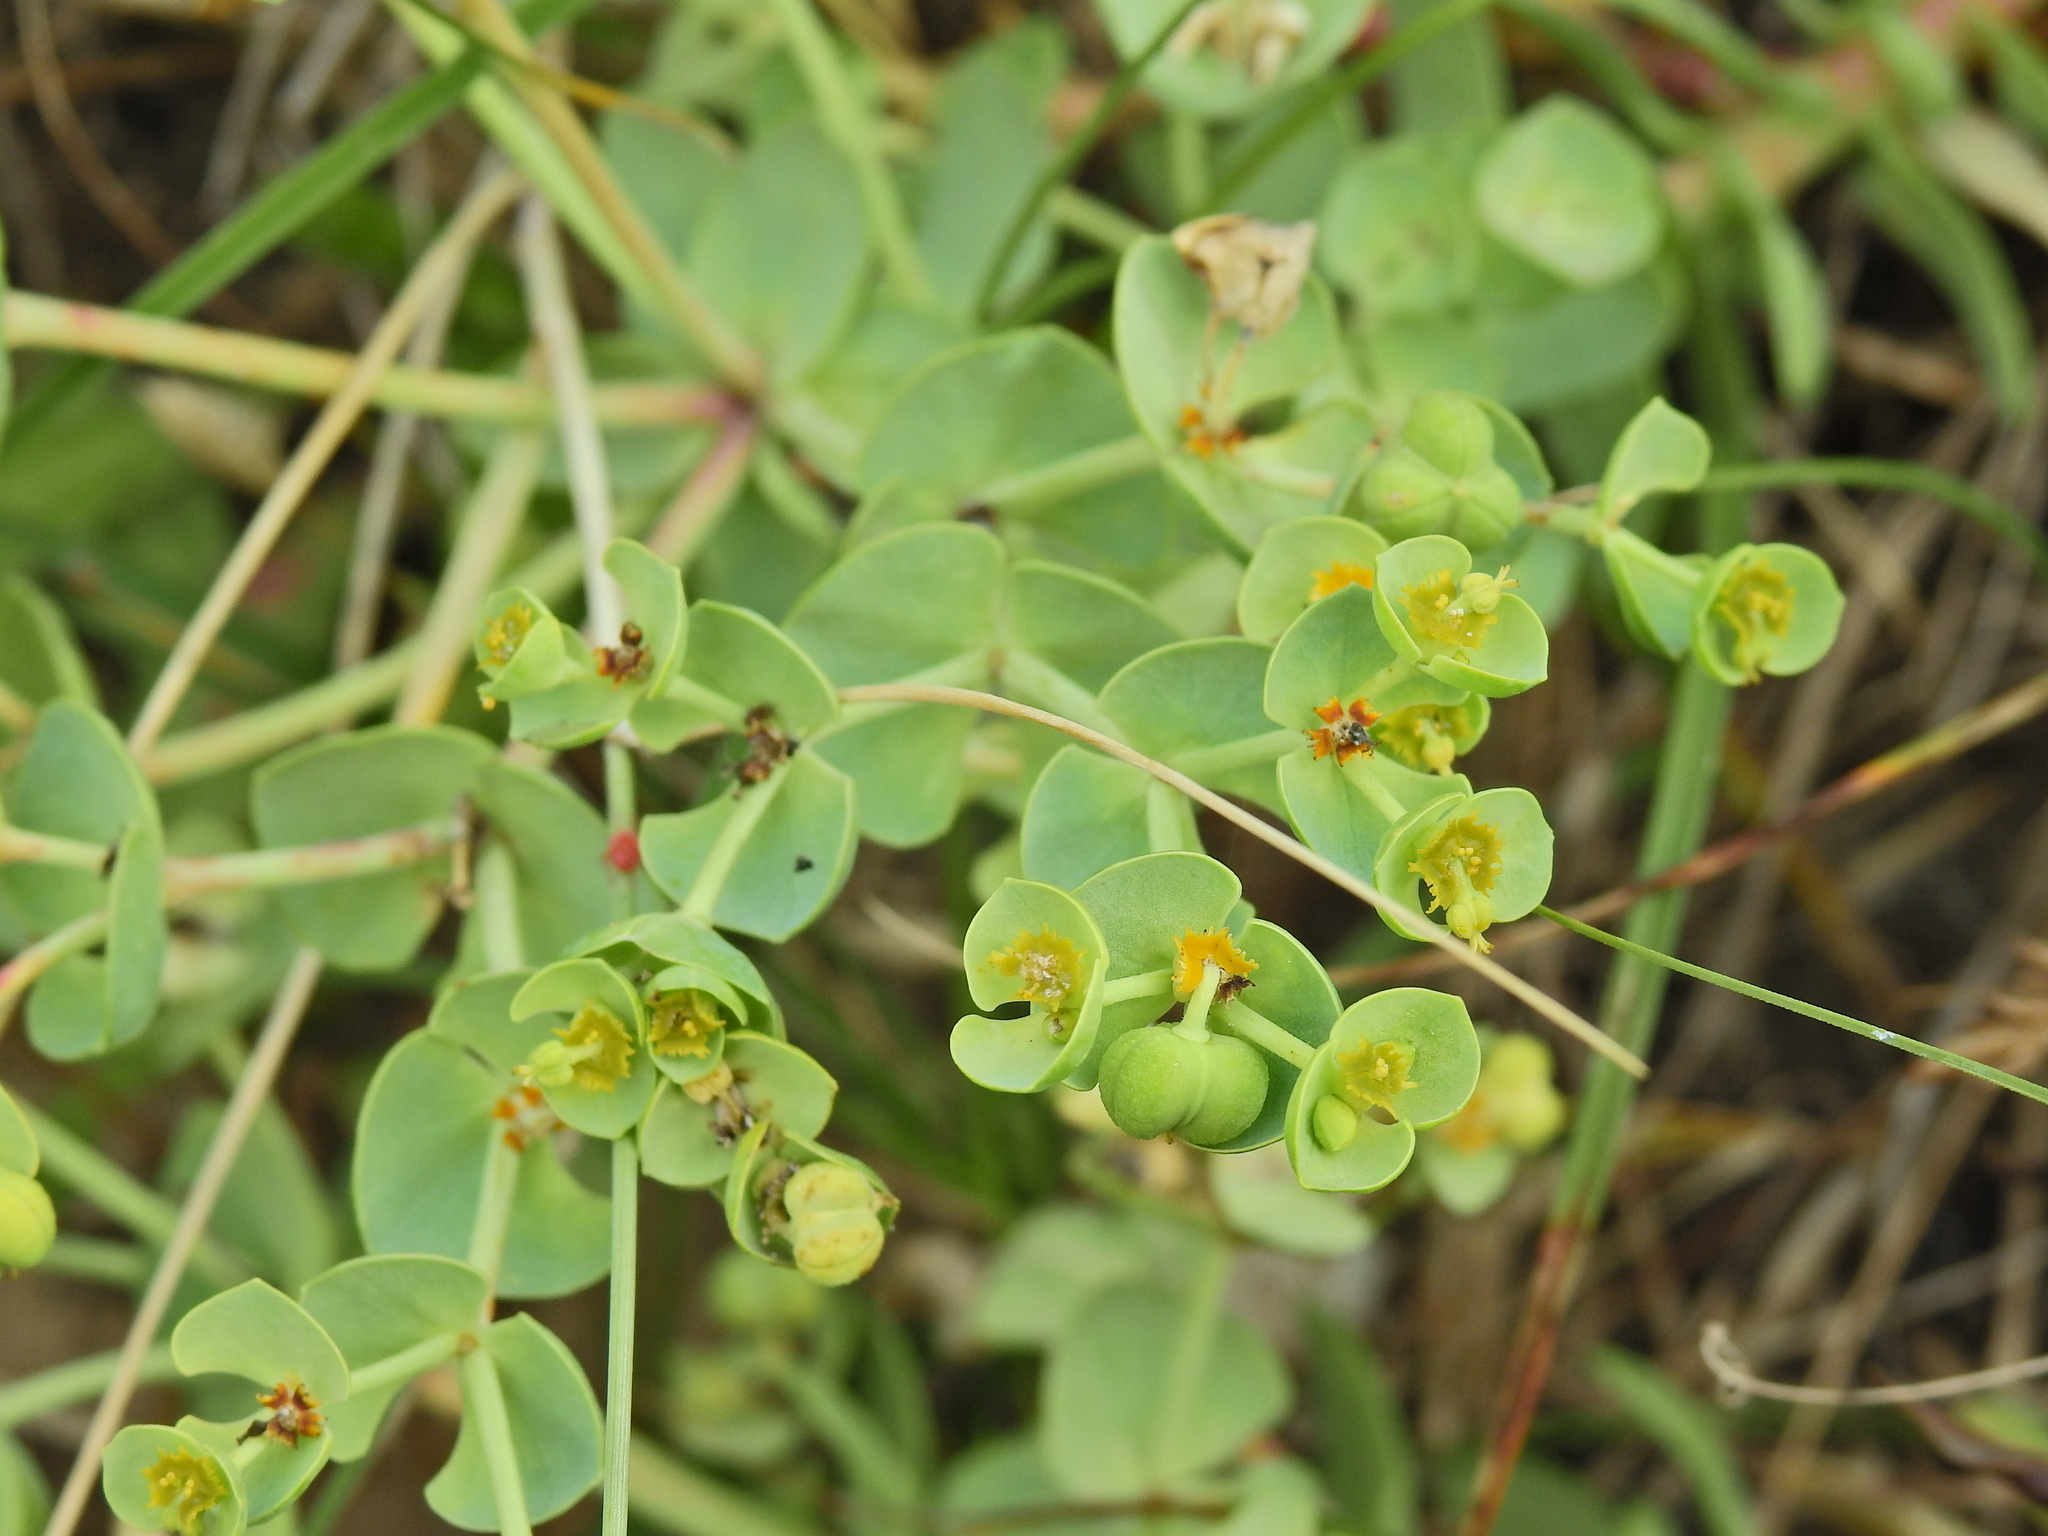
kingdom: Plantae
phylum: Tracheophyta
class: Magnoliopsida
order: Malpighiales
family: Euphorbiaceae
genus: Euphorbia
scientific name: Euphorbia paralias
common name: Sea spurge
